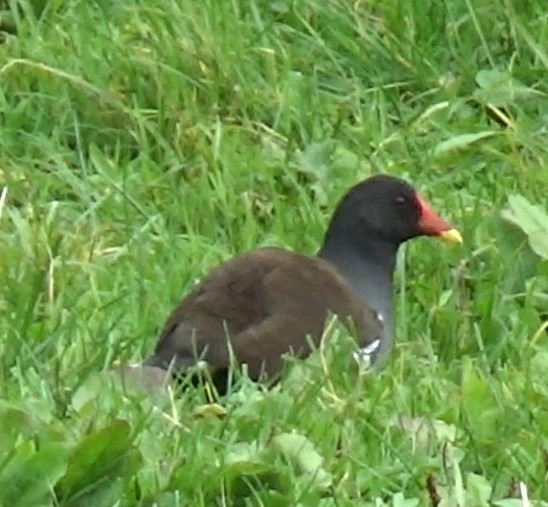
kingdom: Animalia
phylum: Chordata
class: Aves
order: Gruiformes
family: Rallidae
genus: Gallinula
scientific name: Gallinula chloropus
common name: Common moorhen
